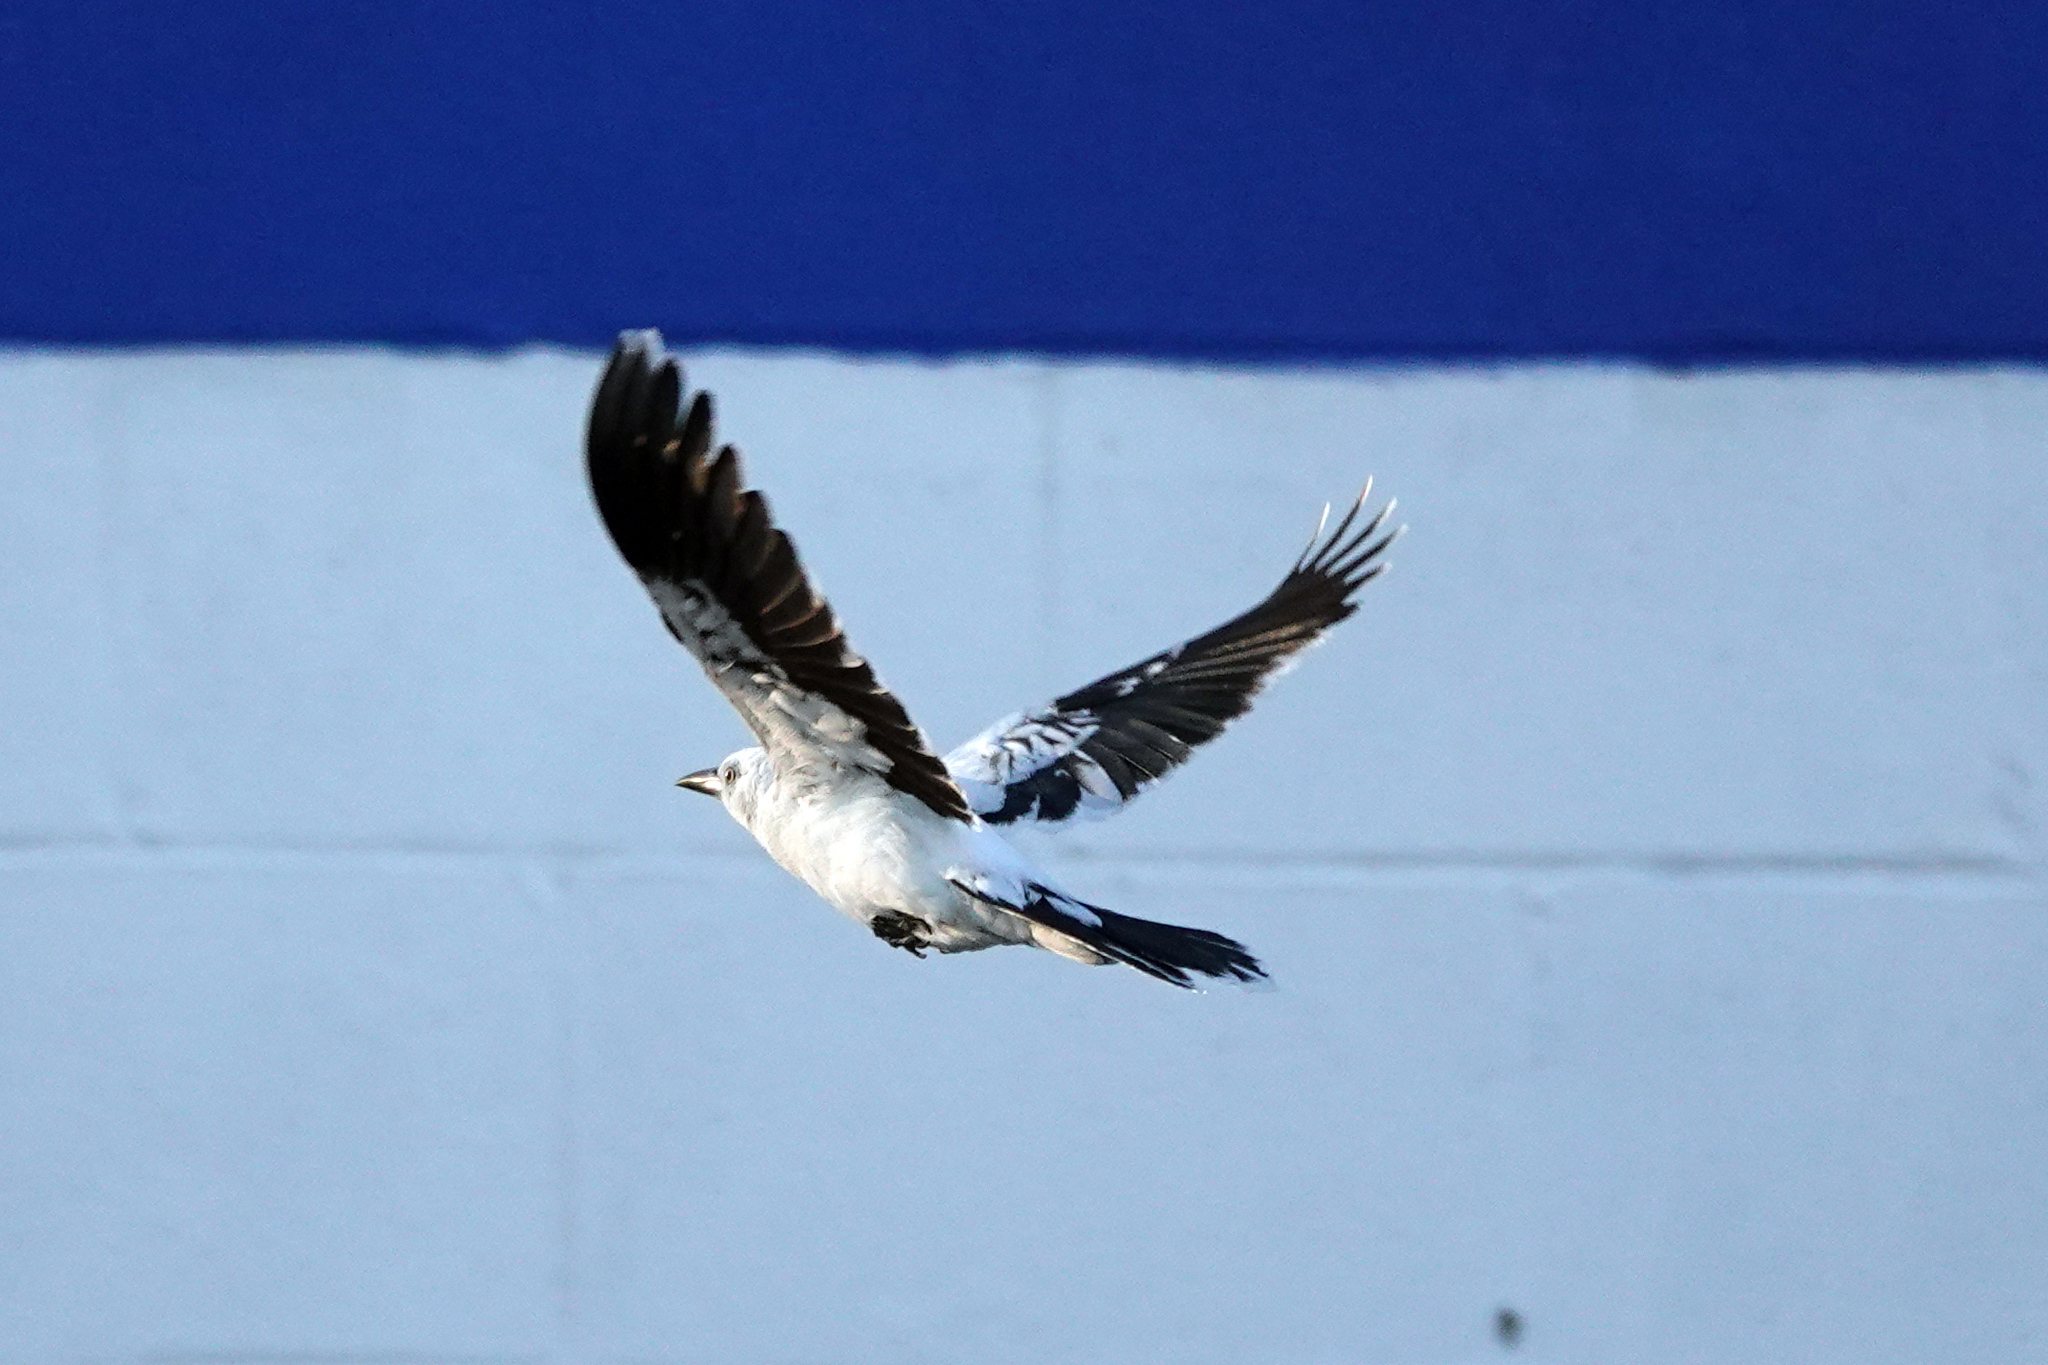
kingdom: Animalia
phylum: Chordata
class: Aves
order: Passeriformes
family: Icteridae
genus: Quiscalus
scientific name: Quiscalus quiscula
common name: Common grackle
